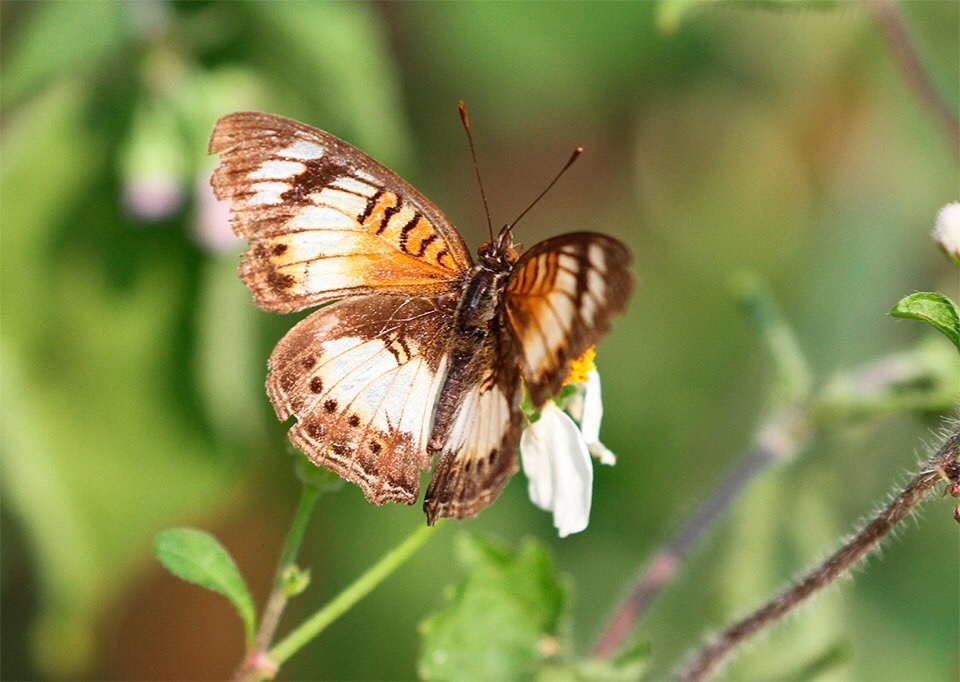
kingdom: Animalia
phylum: Arthropoda
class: Insecta
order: Lepidoptera
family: Nymphalidae
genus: Junonia
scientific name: Junonia sophia
